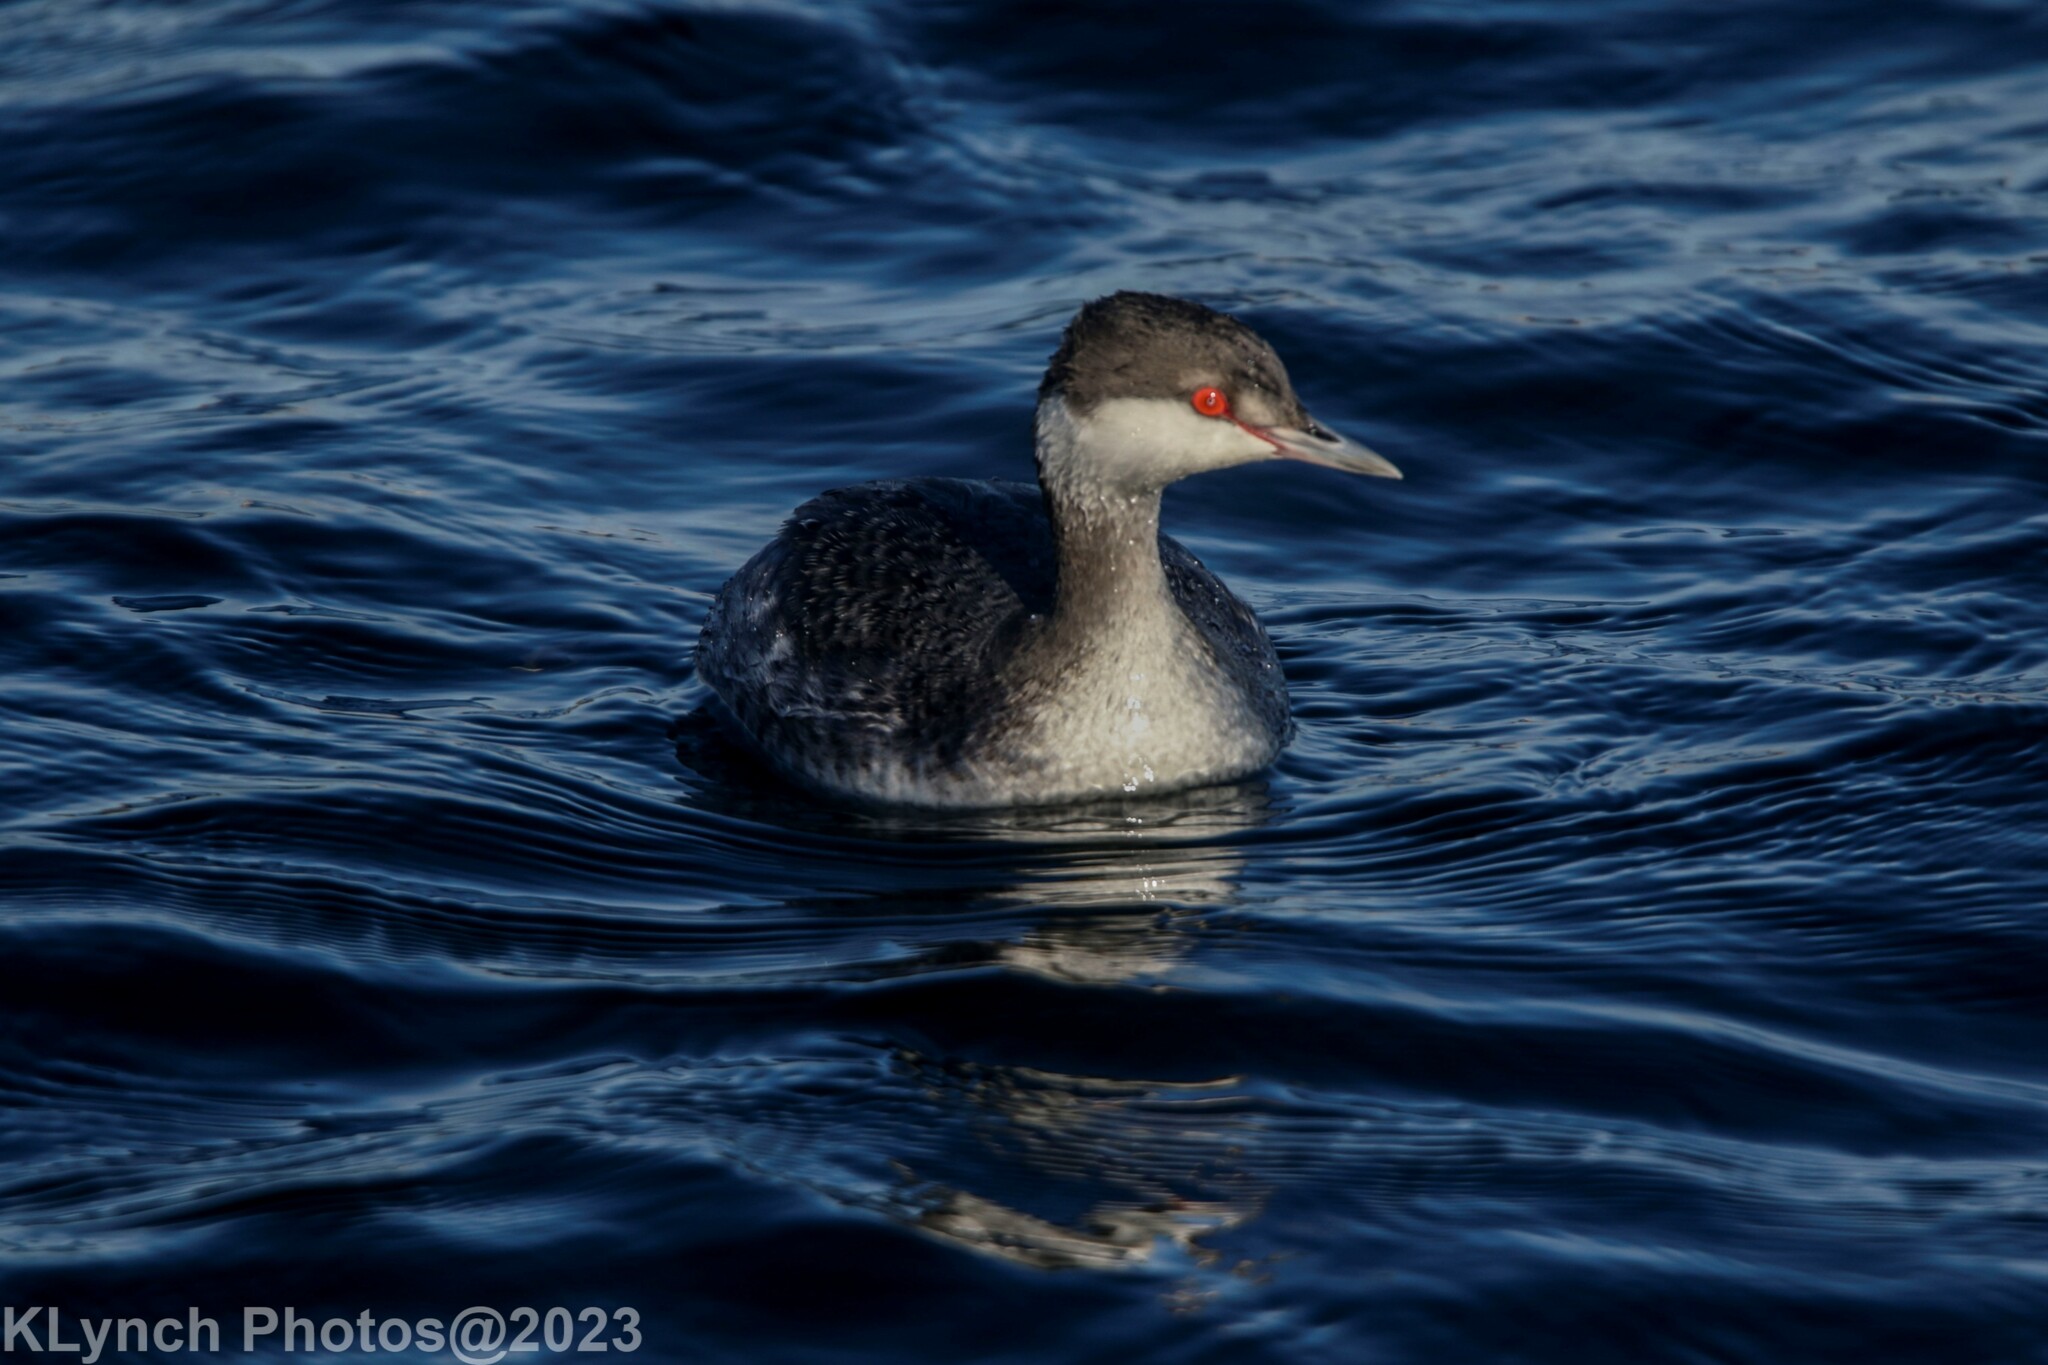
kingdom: Animalia
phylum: Chordata
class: Aves
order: Podicipediformes
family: Podicipedidae
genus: Podiceps
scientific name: Podiceps auritus
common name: Horned grebe
